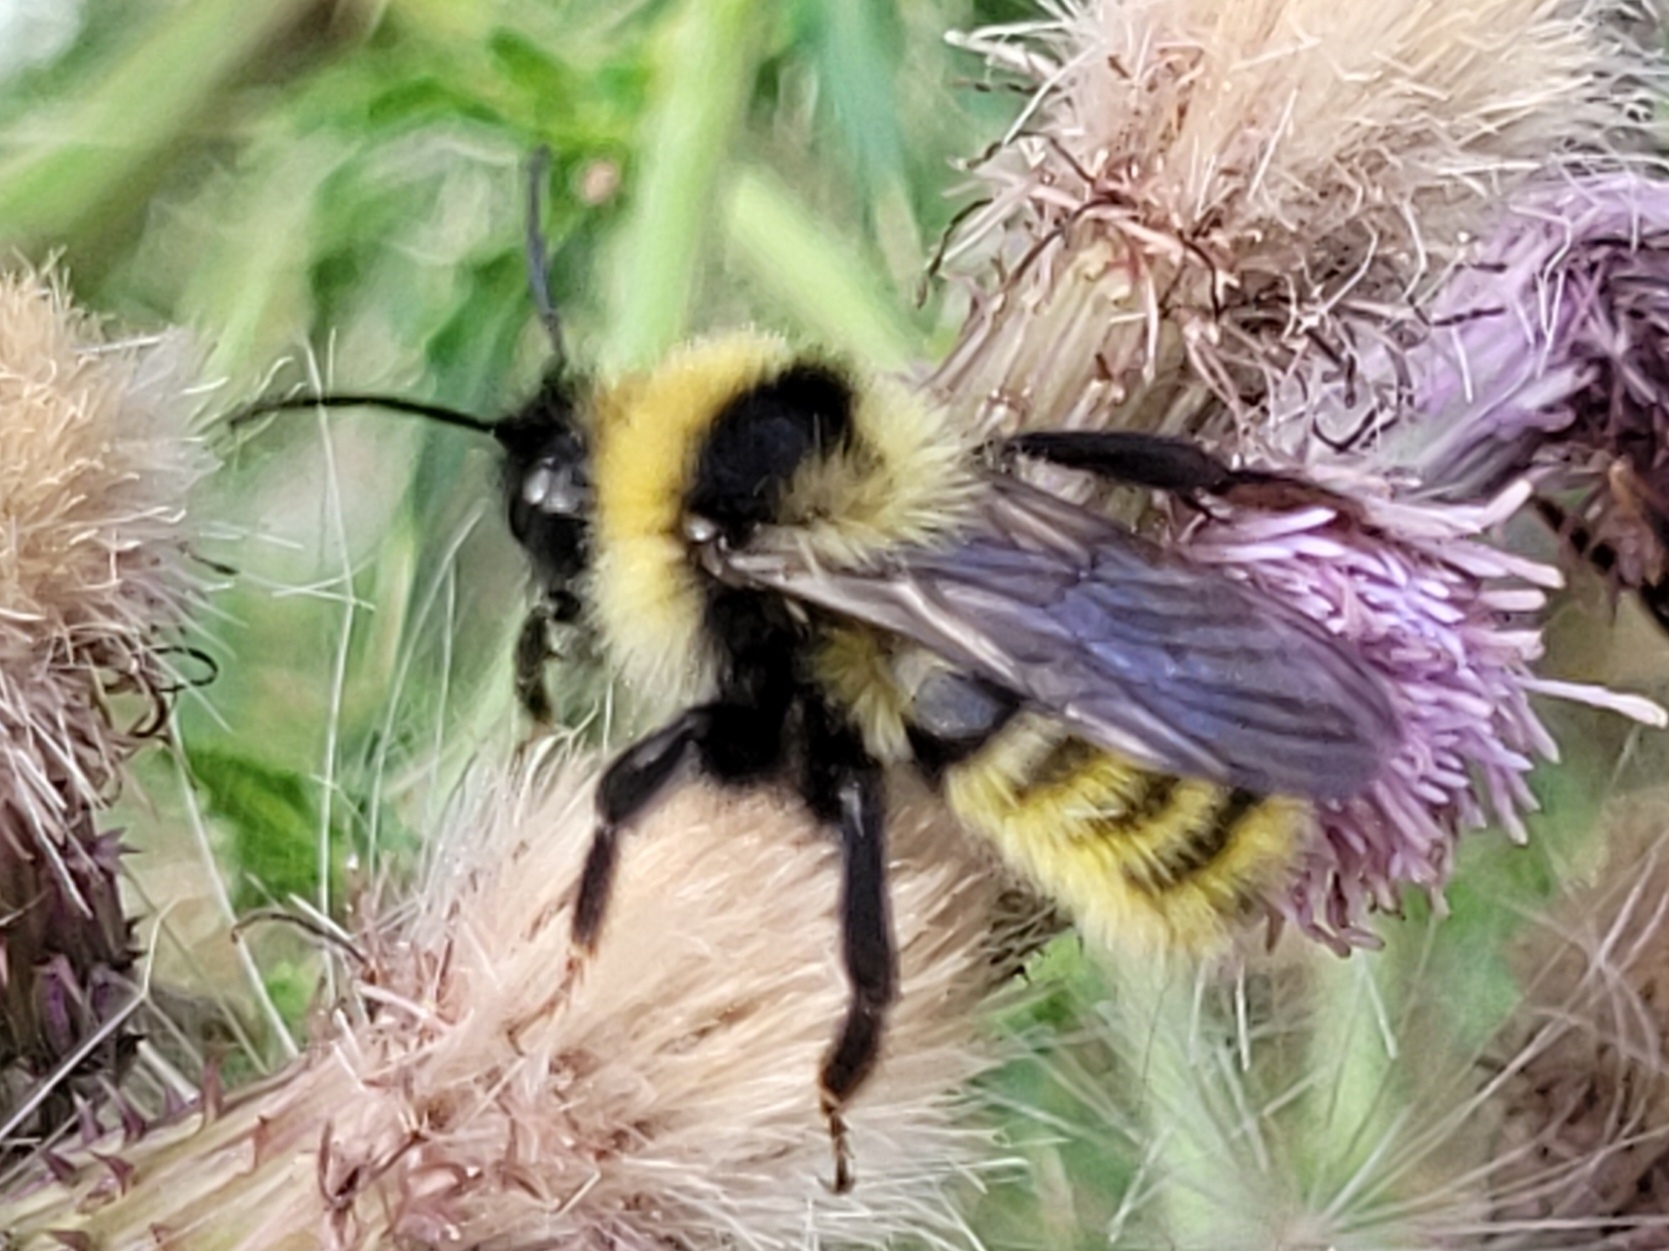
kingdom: Animalia
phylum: Arthropoda
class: Insecta
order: Hymenoptera
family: Apidae
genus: Bombus
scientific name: Bombus campestris
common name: Field cuckoo-bee
